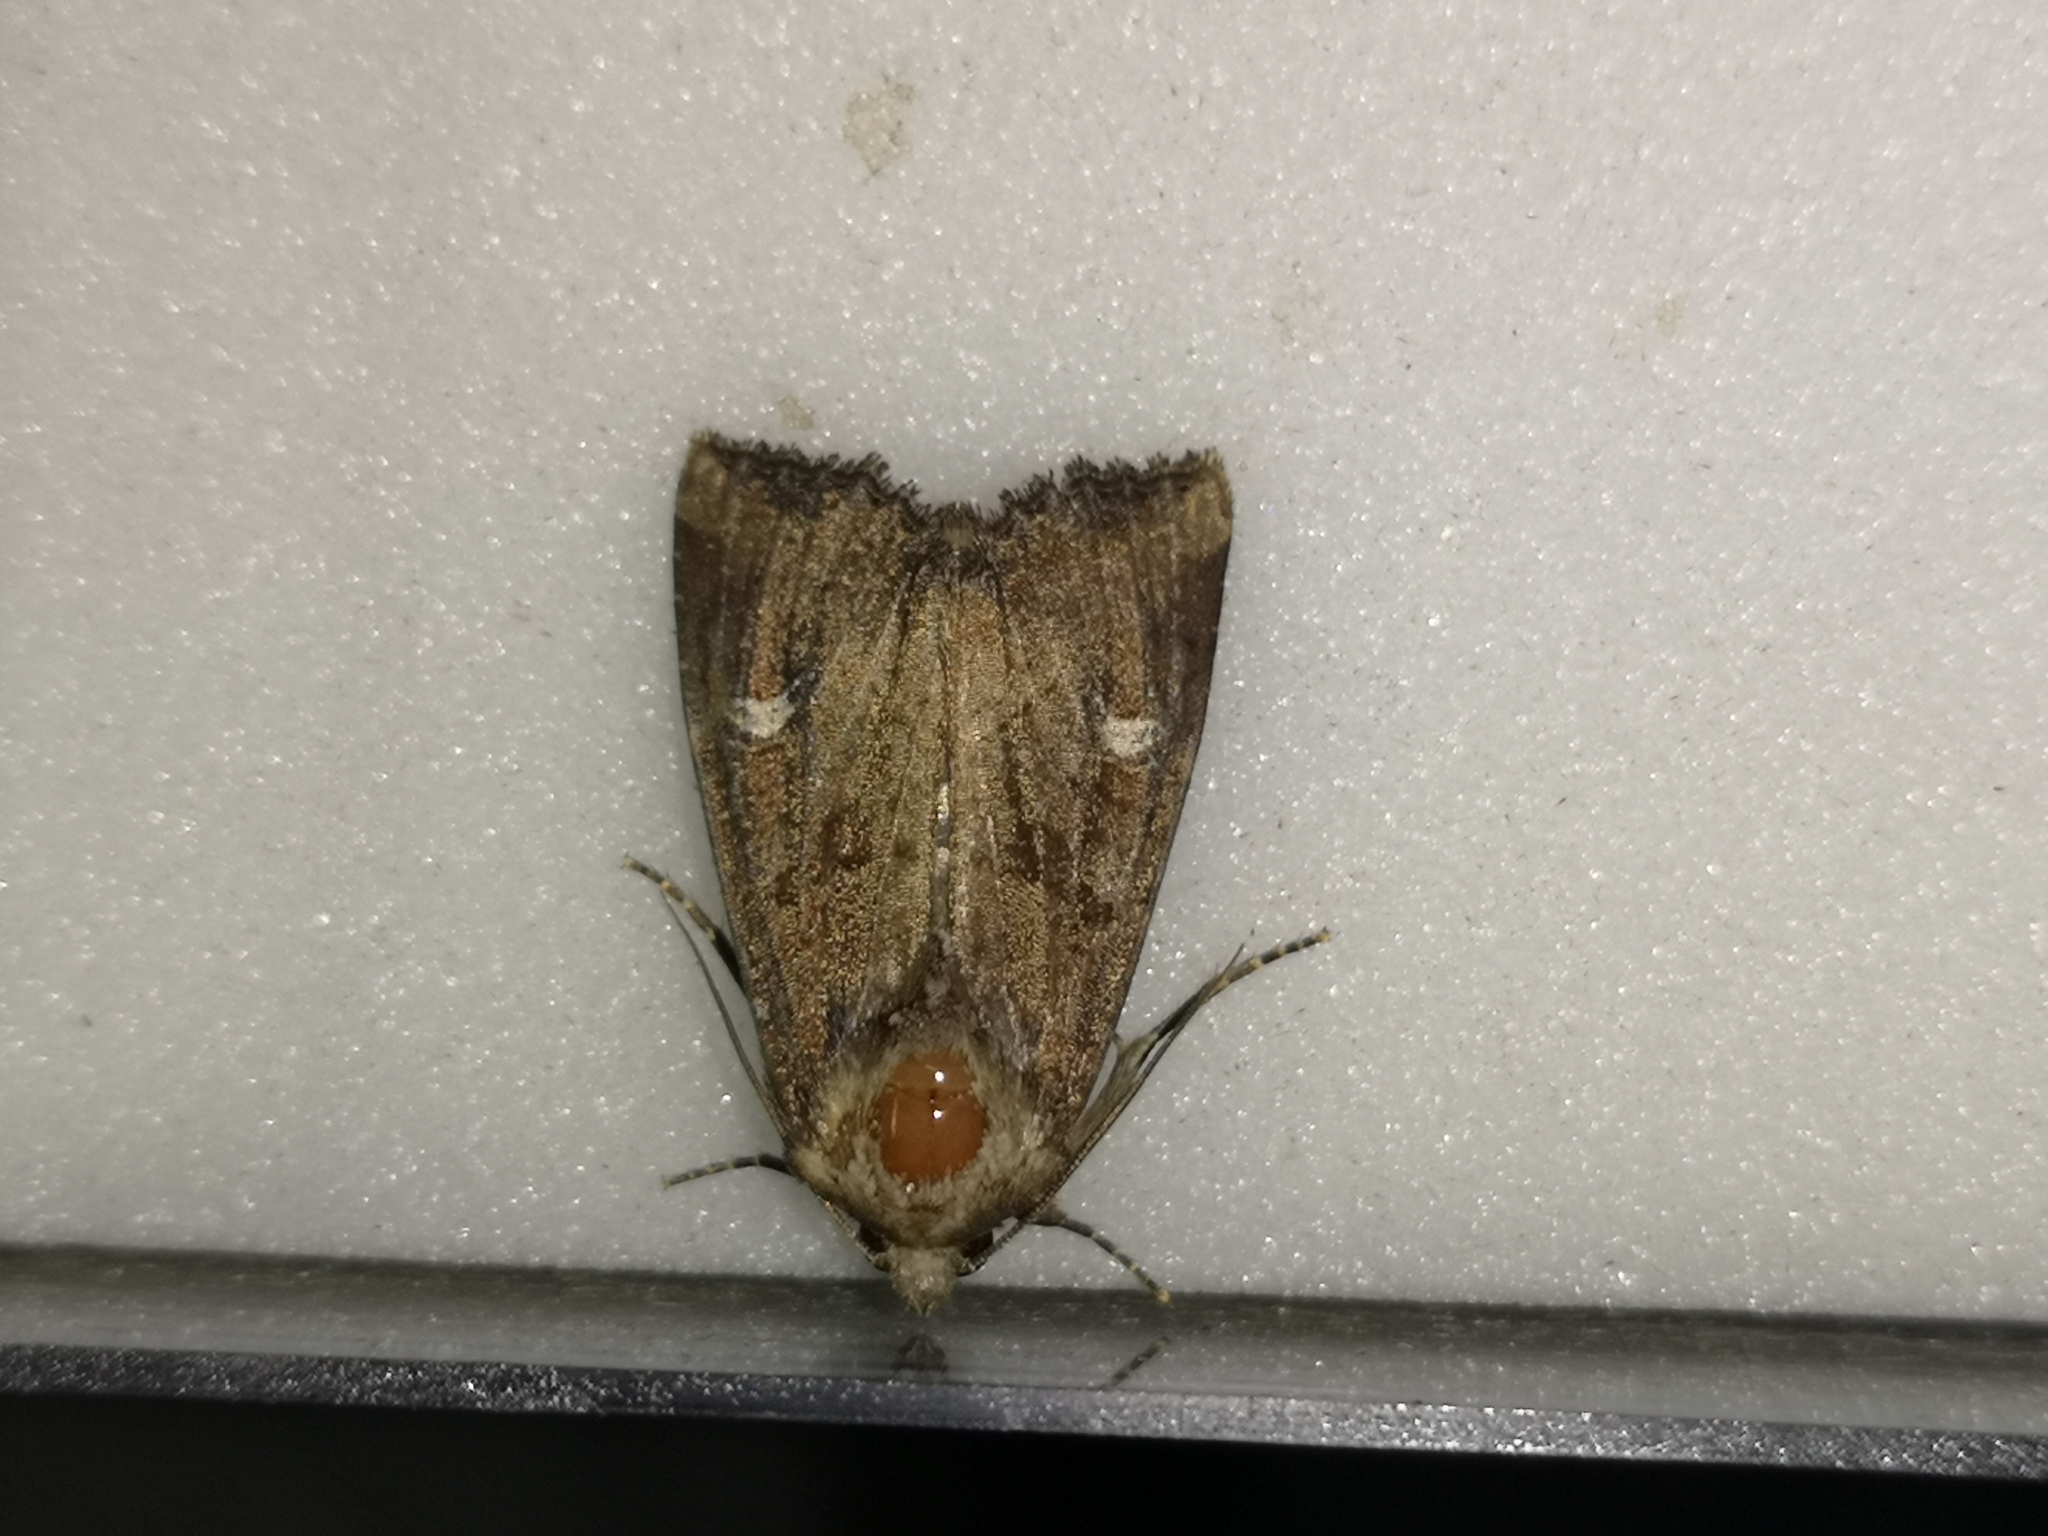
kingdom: Animalia
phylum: Arthropoda
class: Insecta
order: Lepidoptera
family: Noctuidae
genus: Helotropha
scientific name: Helotropha leucostigma
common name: The crescent
